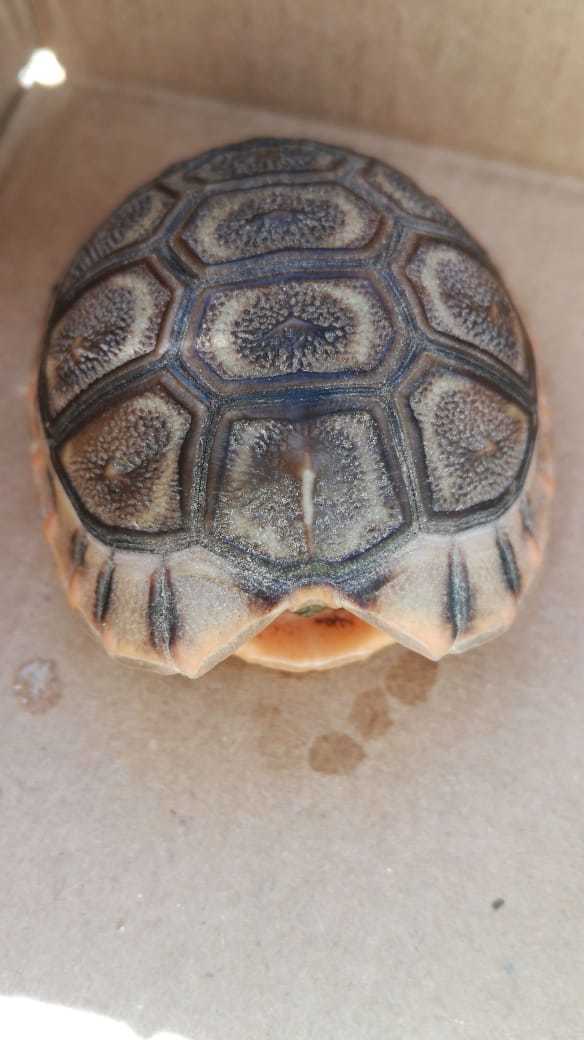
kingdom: Animalia
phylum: Chordata
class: Testudines
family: Testudinidae
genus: Chersina
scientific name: Chersina angulata
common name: South african bowsprit tortoise
